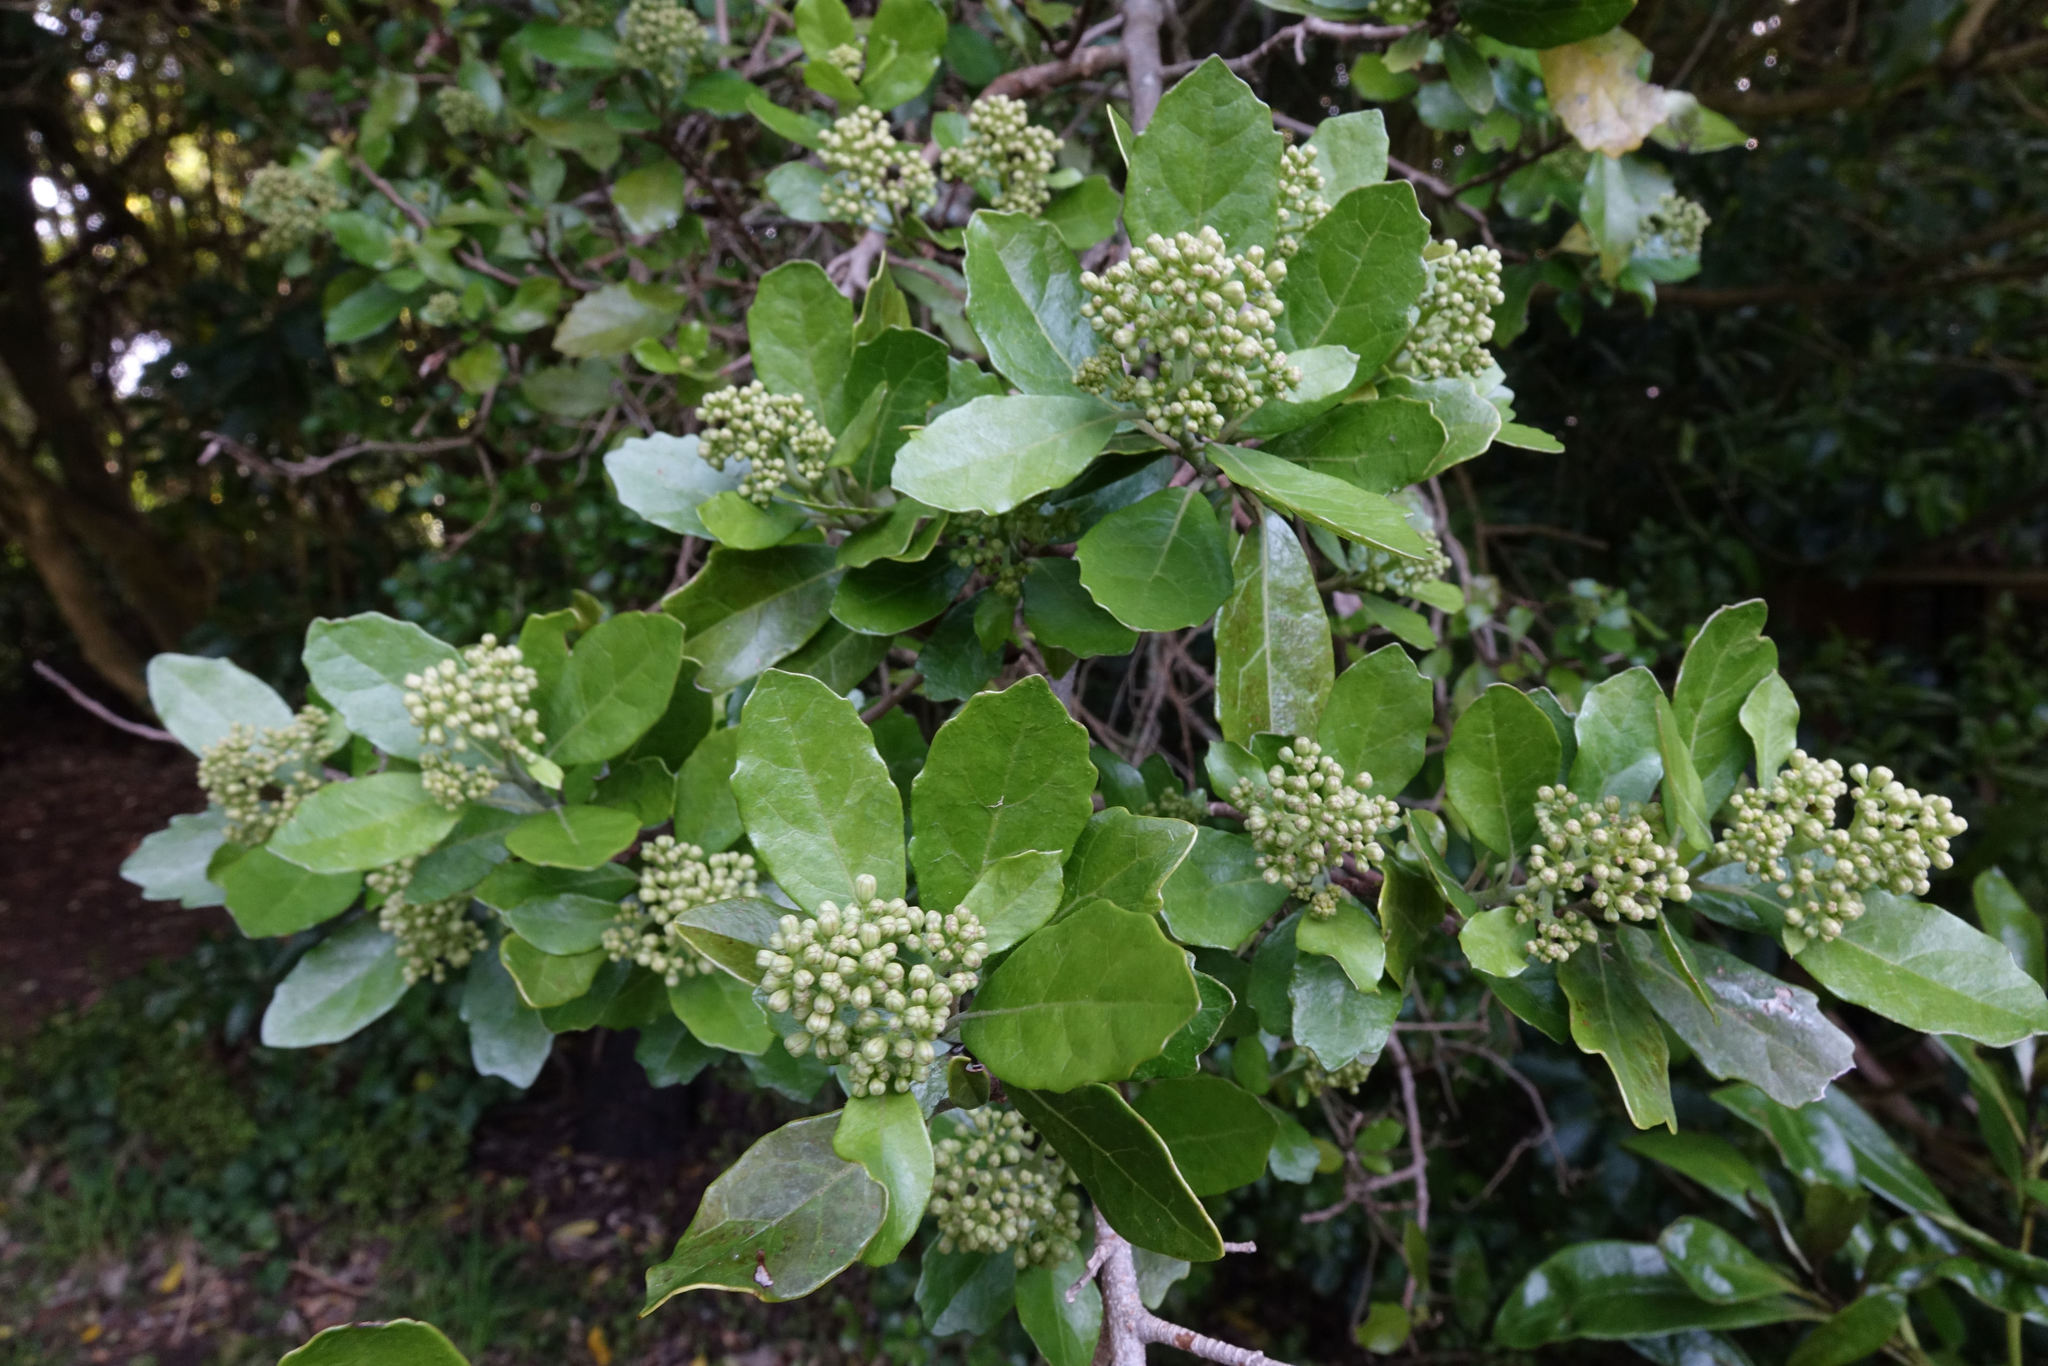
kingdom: Plantae
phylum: Tracheophyta
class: Magnoliopsida
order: Apiales
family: Pennantiaceae
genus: Pennantia
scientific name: Pennantia corymbosa
